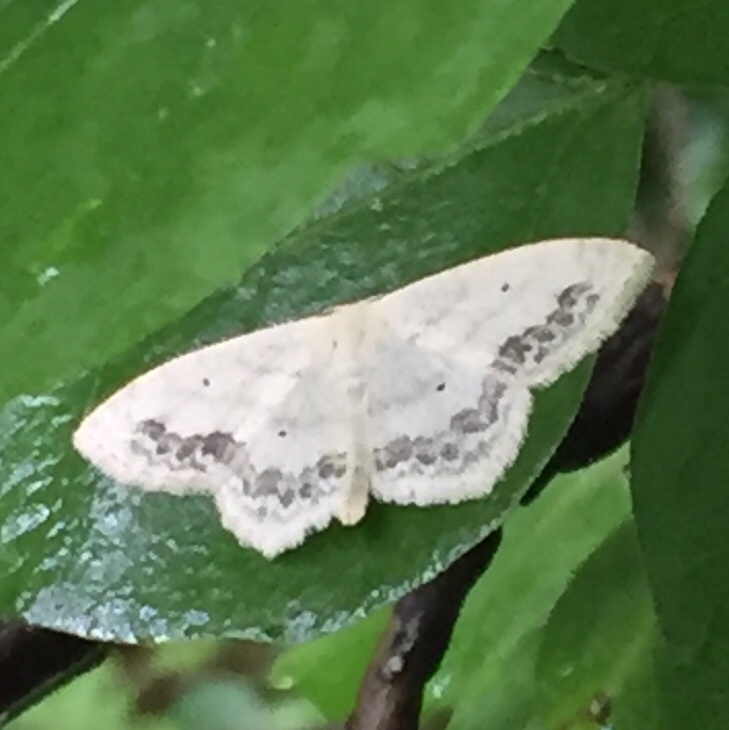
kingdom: Animalia
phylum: Arthropoda
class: Insecta
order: Lepidoptera
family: Geometridae
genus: Scopula
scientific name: Scopula limboundata
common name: Large lace border
